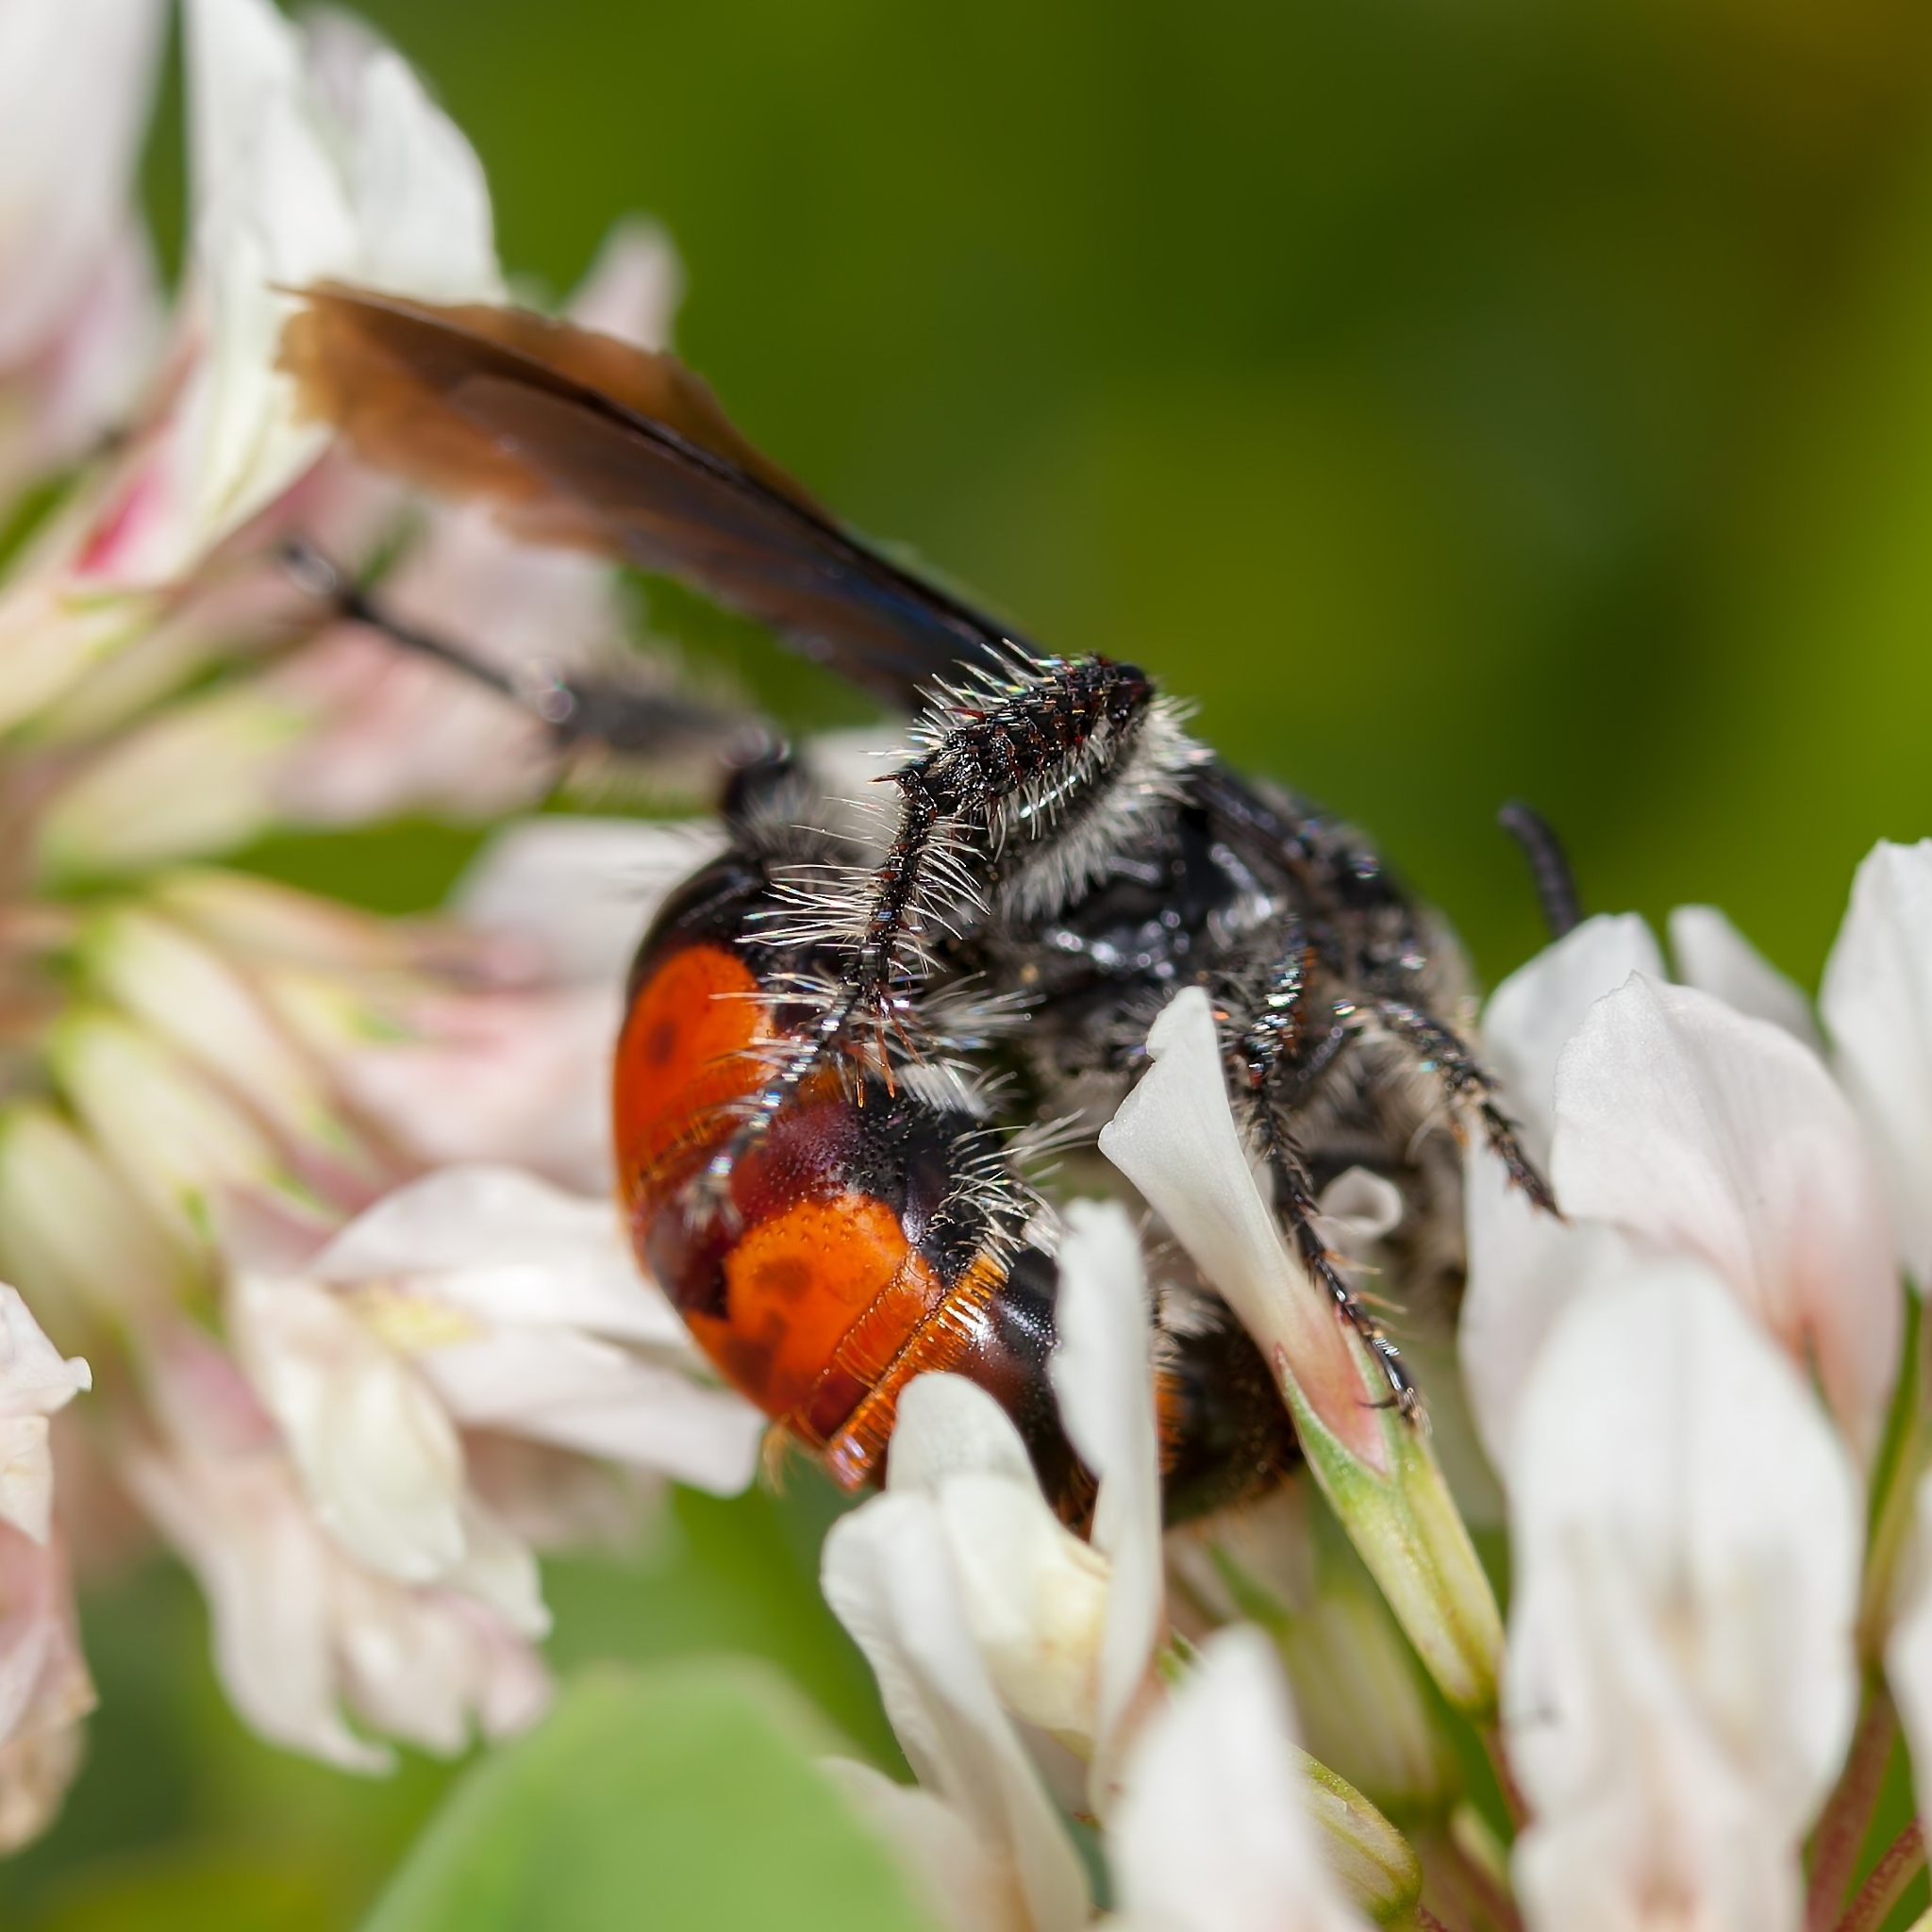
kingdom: Animalia
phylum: Arthropoda
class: Insecta
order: Hymenoptera
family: Scoliidae
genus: Dielis
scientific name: Dielis dorsata
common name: Scoliid wasp
